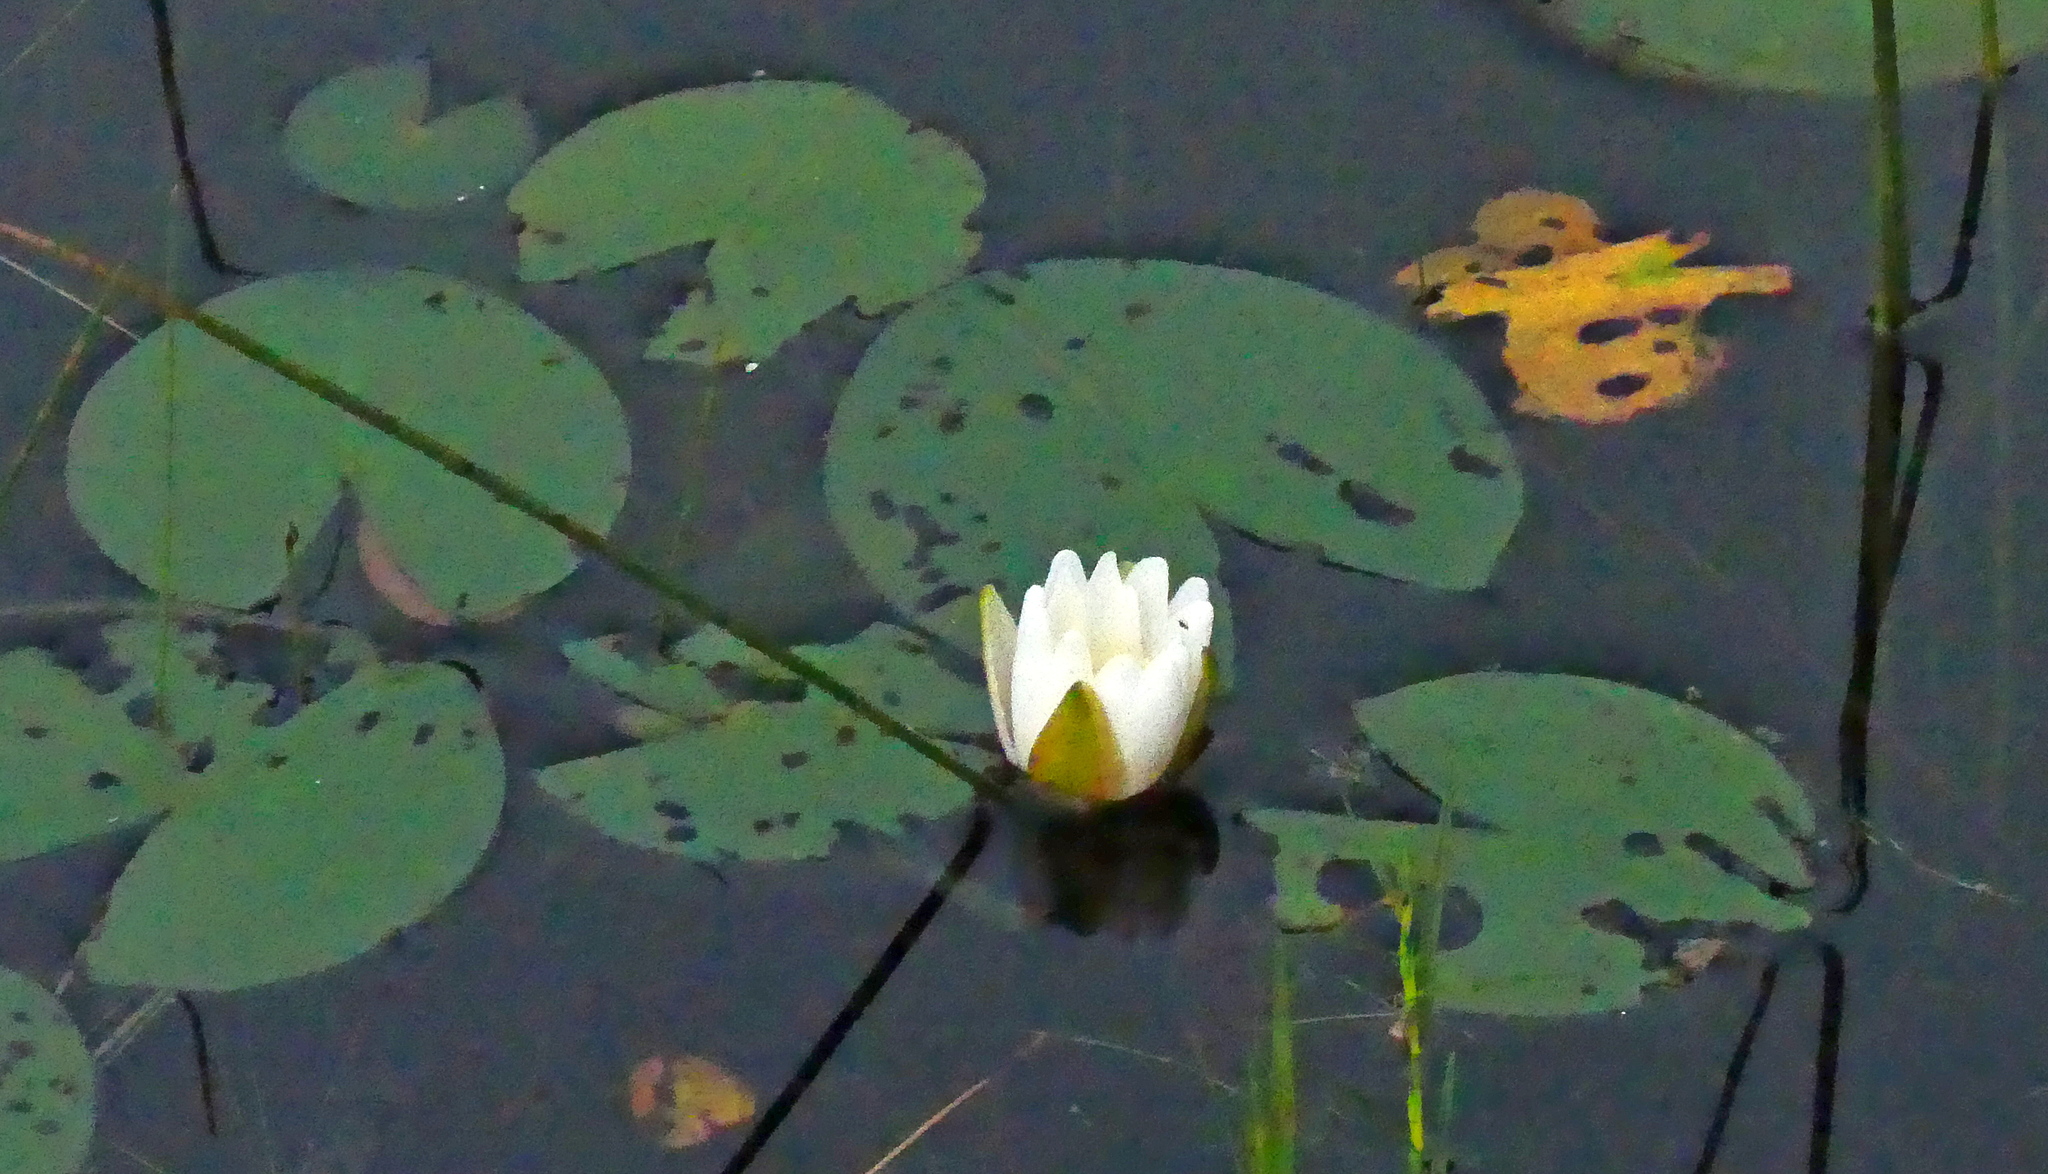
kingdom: Plantae
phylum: Tracheophyta
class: Magnoliopsida
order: Nymphaeales
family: Nymphaeaceae
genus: Nymphaea
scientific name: Nymphaea odorata
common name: Fragrant water-lily
